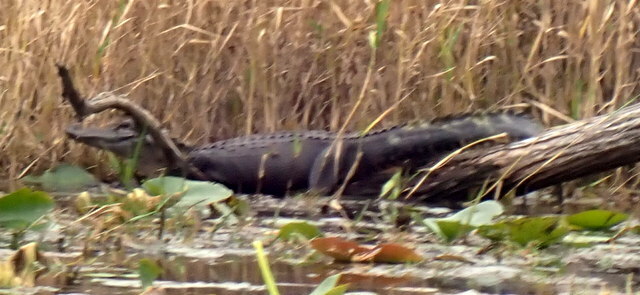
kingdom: Animalia
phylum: Chordata
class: Crocodylia
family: Alligatoridae
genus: Alligator
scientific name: Alligator mississippiensis
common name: American alligator
